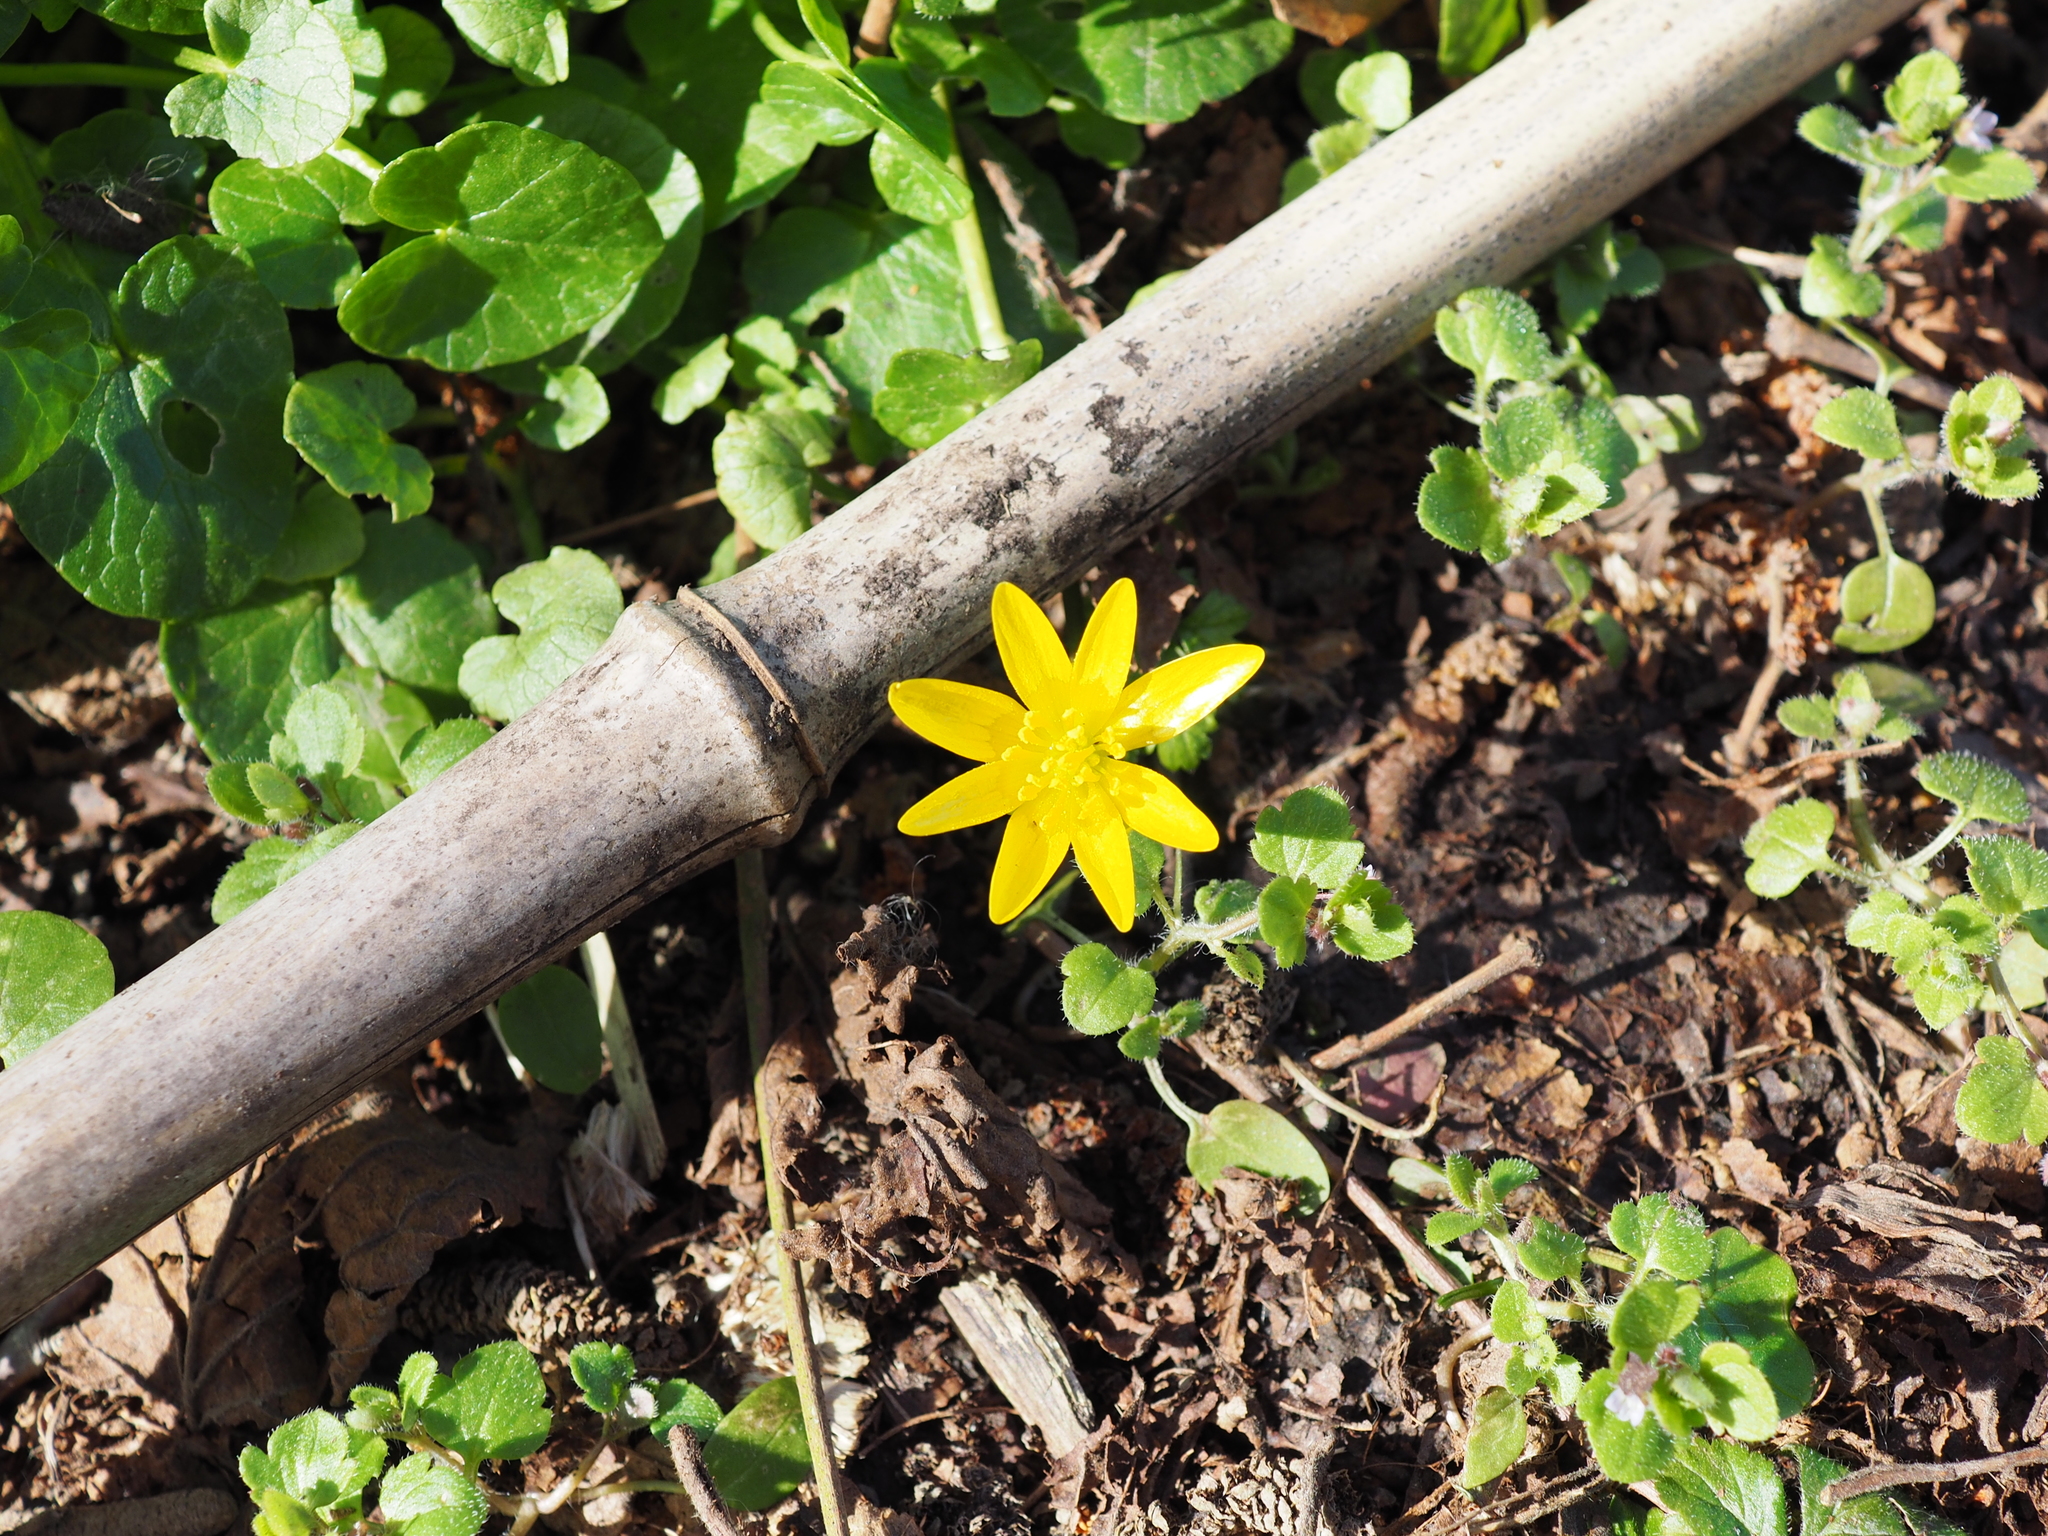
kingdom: Plantae
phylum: Tracheophyta
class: Magnoliopsida
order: Ranunculales
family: Ranunculaceae
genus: Ficaria
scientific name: Ficaria verna
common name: Lesser celandine
